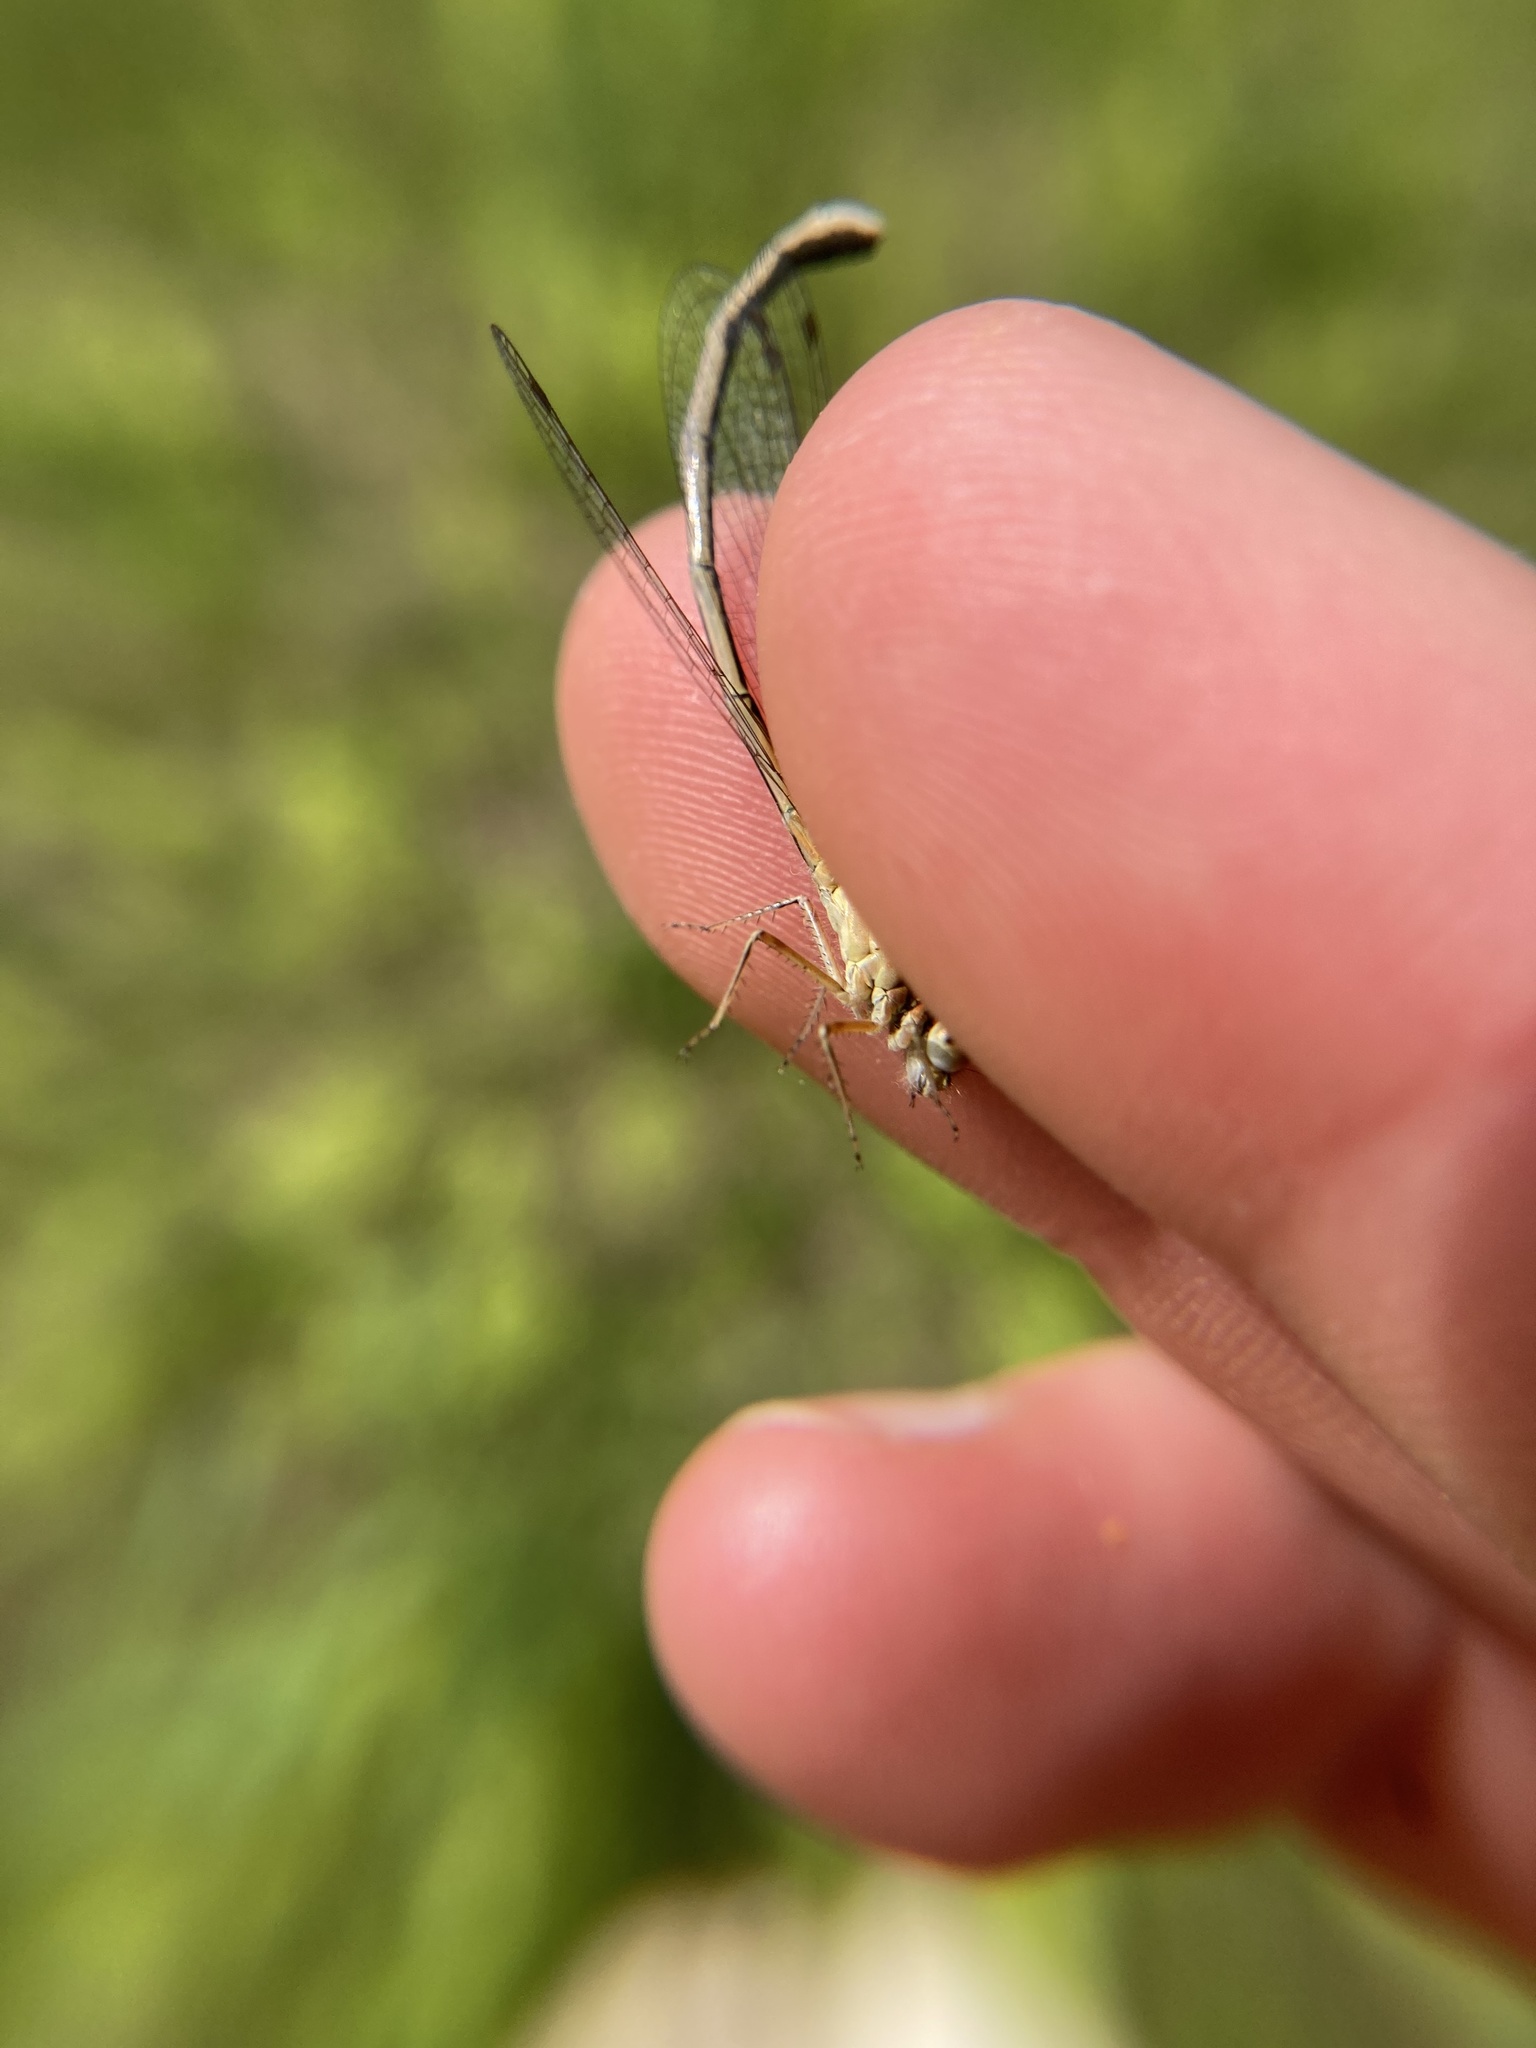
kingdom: Animalia
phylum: Arthropoda
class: Insecta
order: Odonata
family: Coenagrionidae
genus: Ischnura
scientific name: Ischnura verticalis
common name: Eastern forktail
